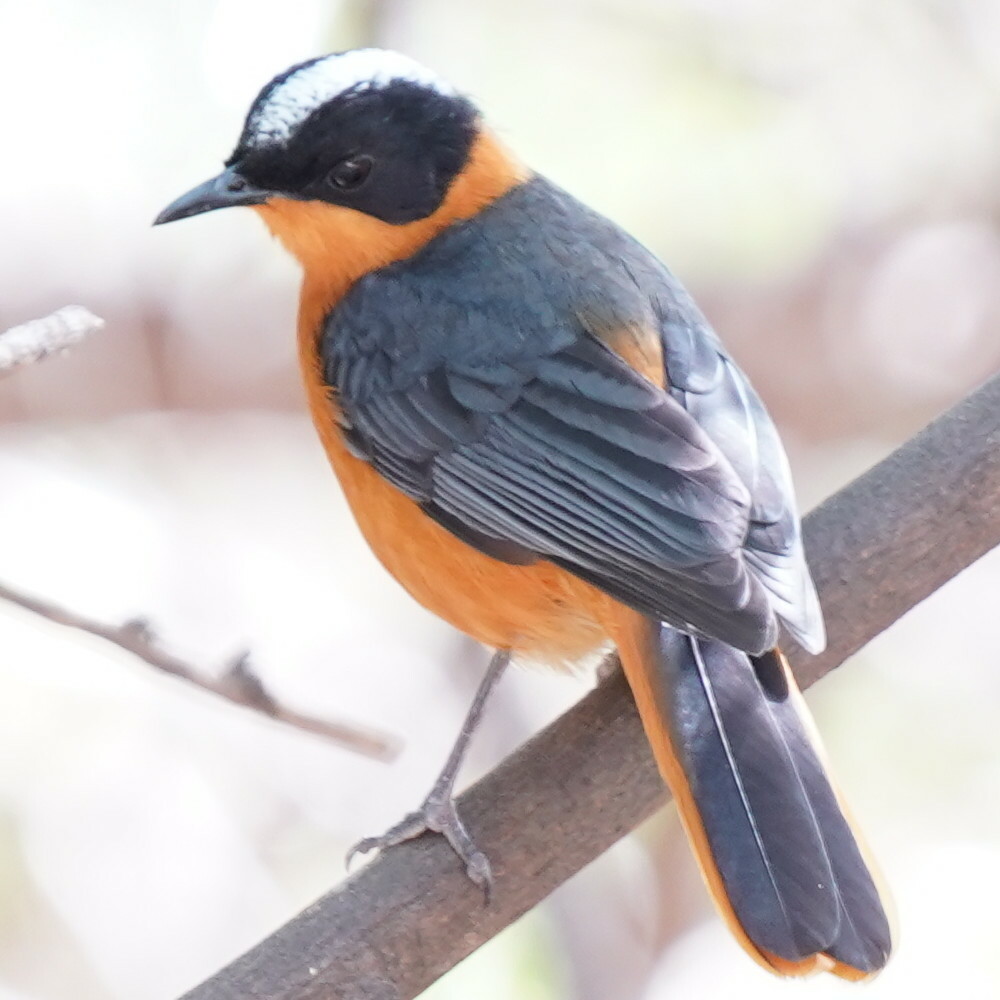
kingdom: Animalia
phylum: Chordata
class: Aves
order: Passeriformes
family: Muscicapidae
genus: Cossypha
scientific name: Cossypha niveicapilla
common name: Snowy-crowned robin-chat
